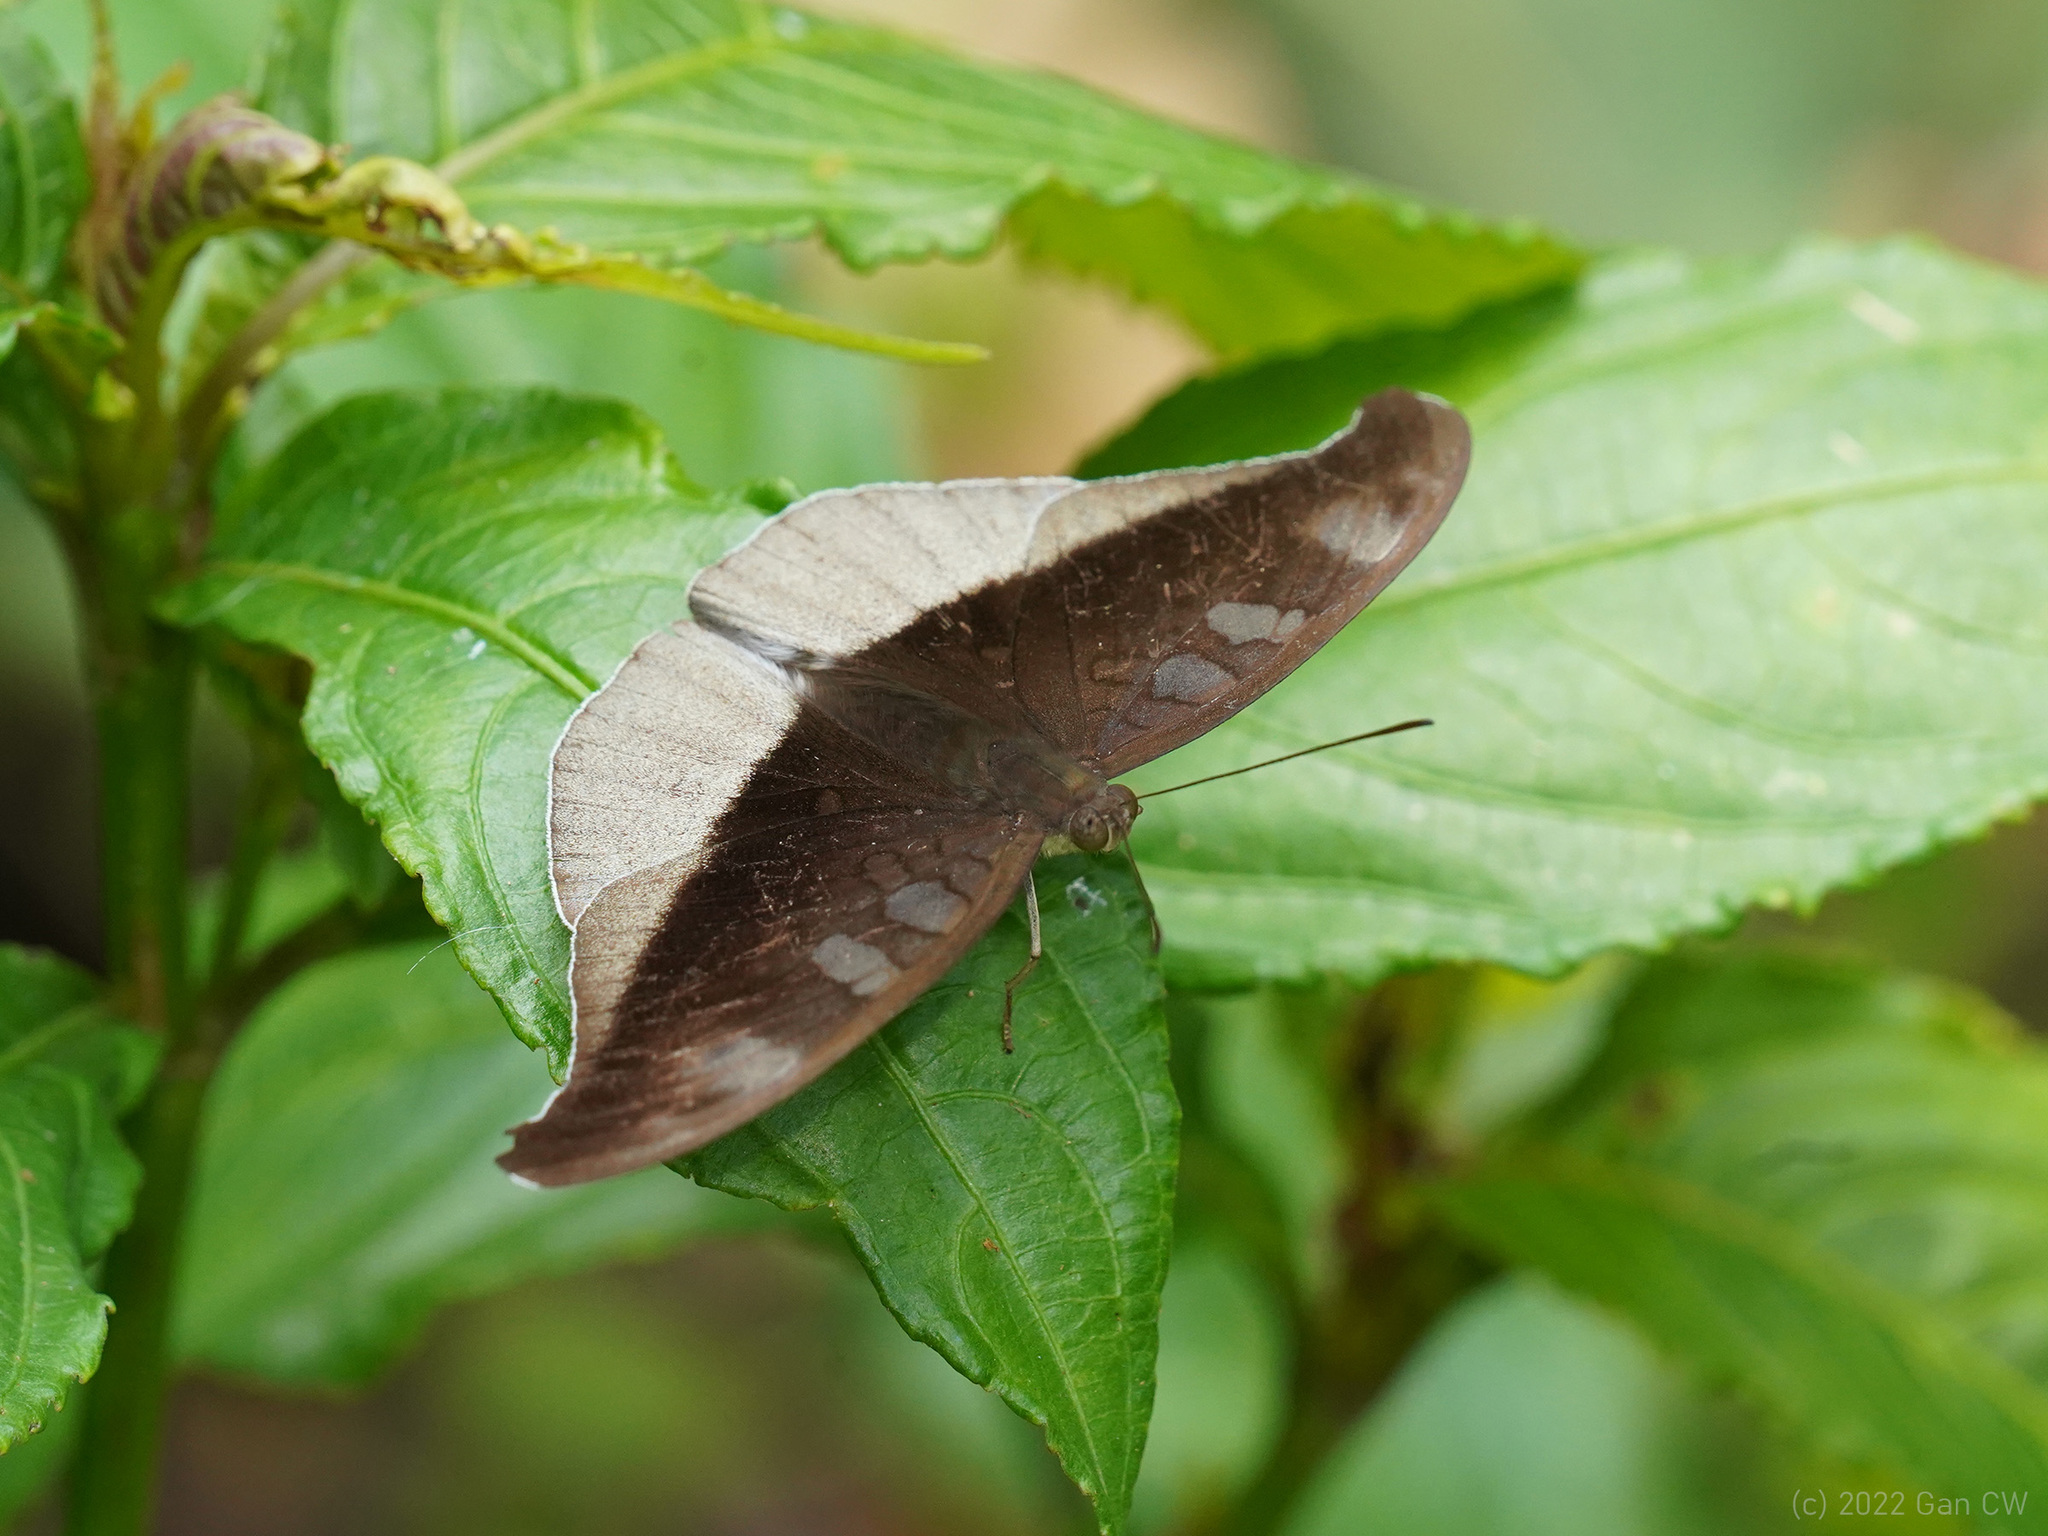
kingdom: Animalia
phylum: Arthropoda
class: Insecta
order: Lepidoptera
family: Nymphalidae
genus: Tanaecia
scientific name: Tanaecia cocytus
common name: Lavender count
